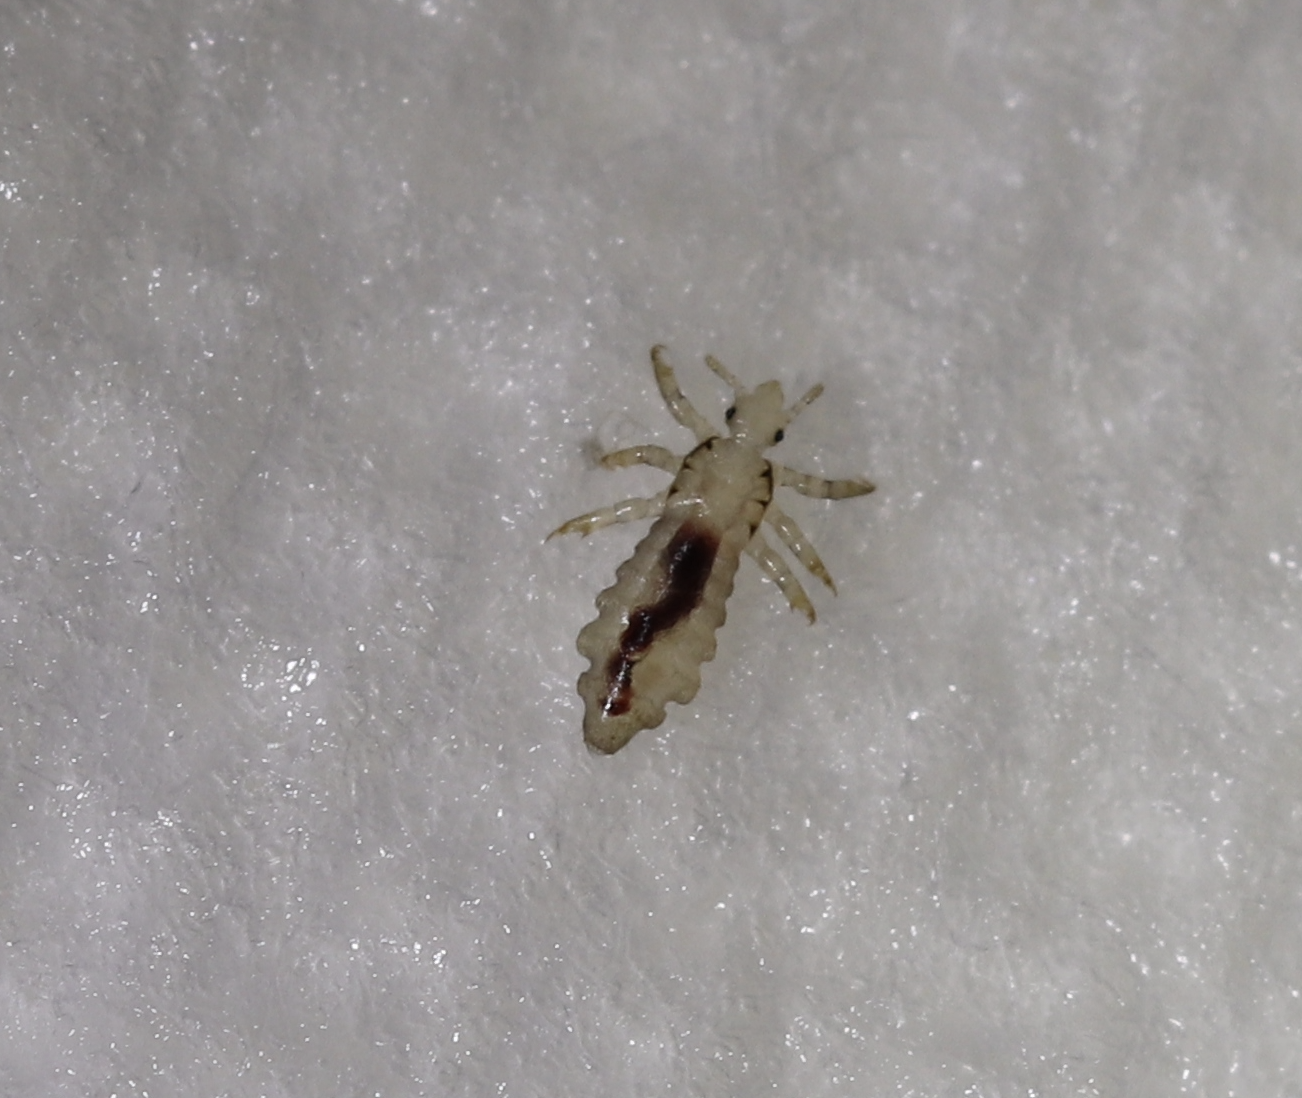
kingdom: Animalia
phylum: Arthropoda
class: Insecta
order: Psocodea
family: Pediculidae
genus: Pediculus
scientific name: Pediculus humanus
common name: Body louse
